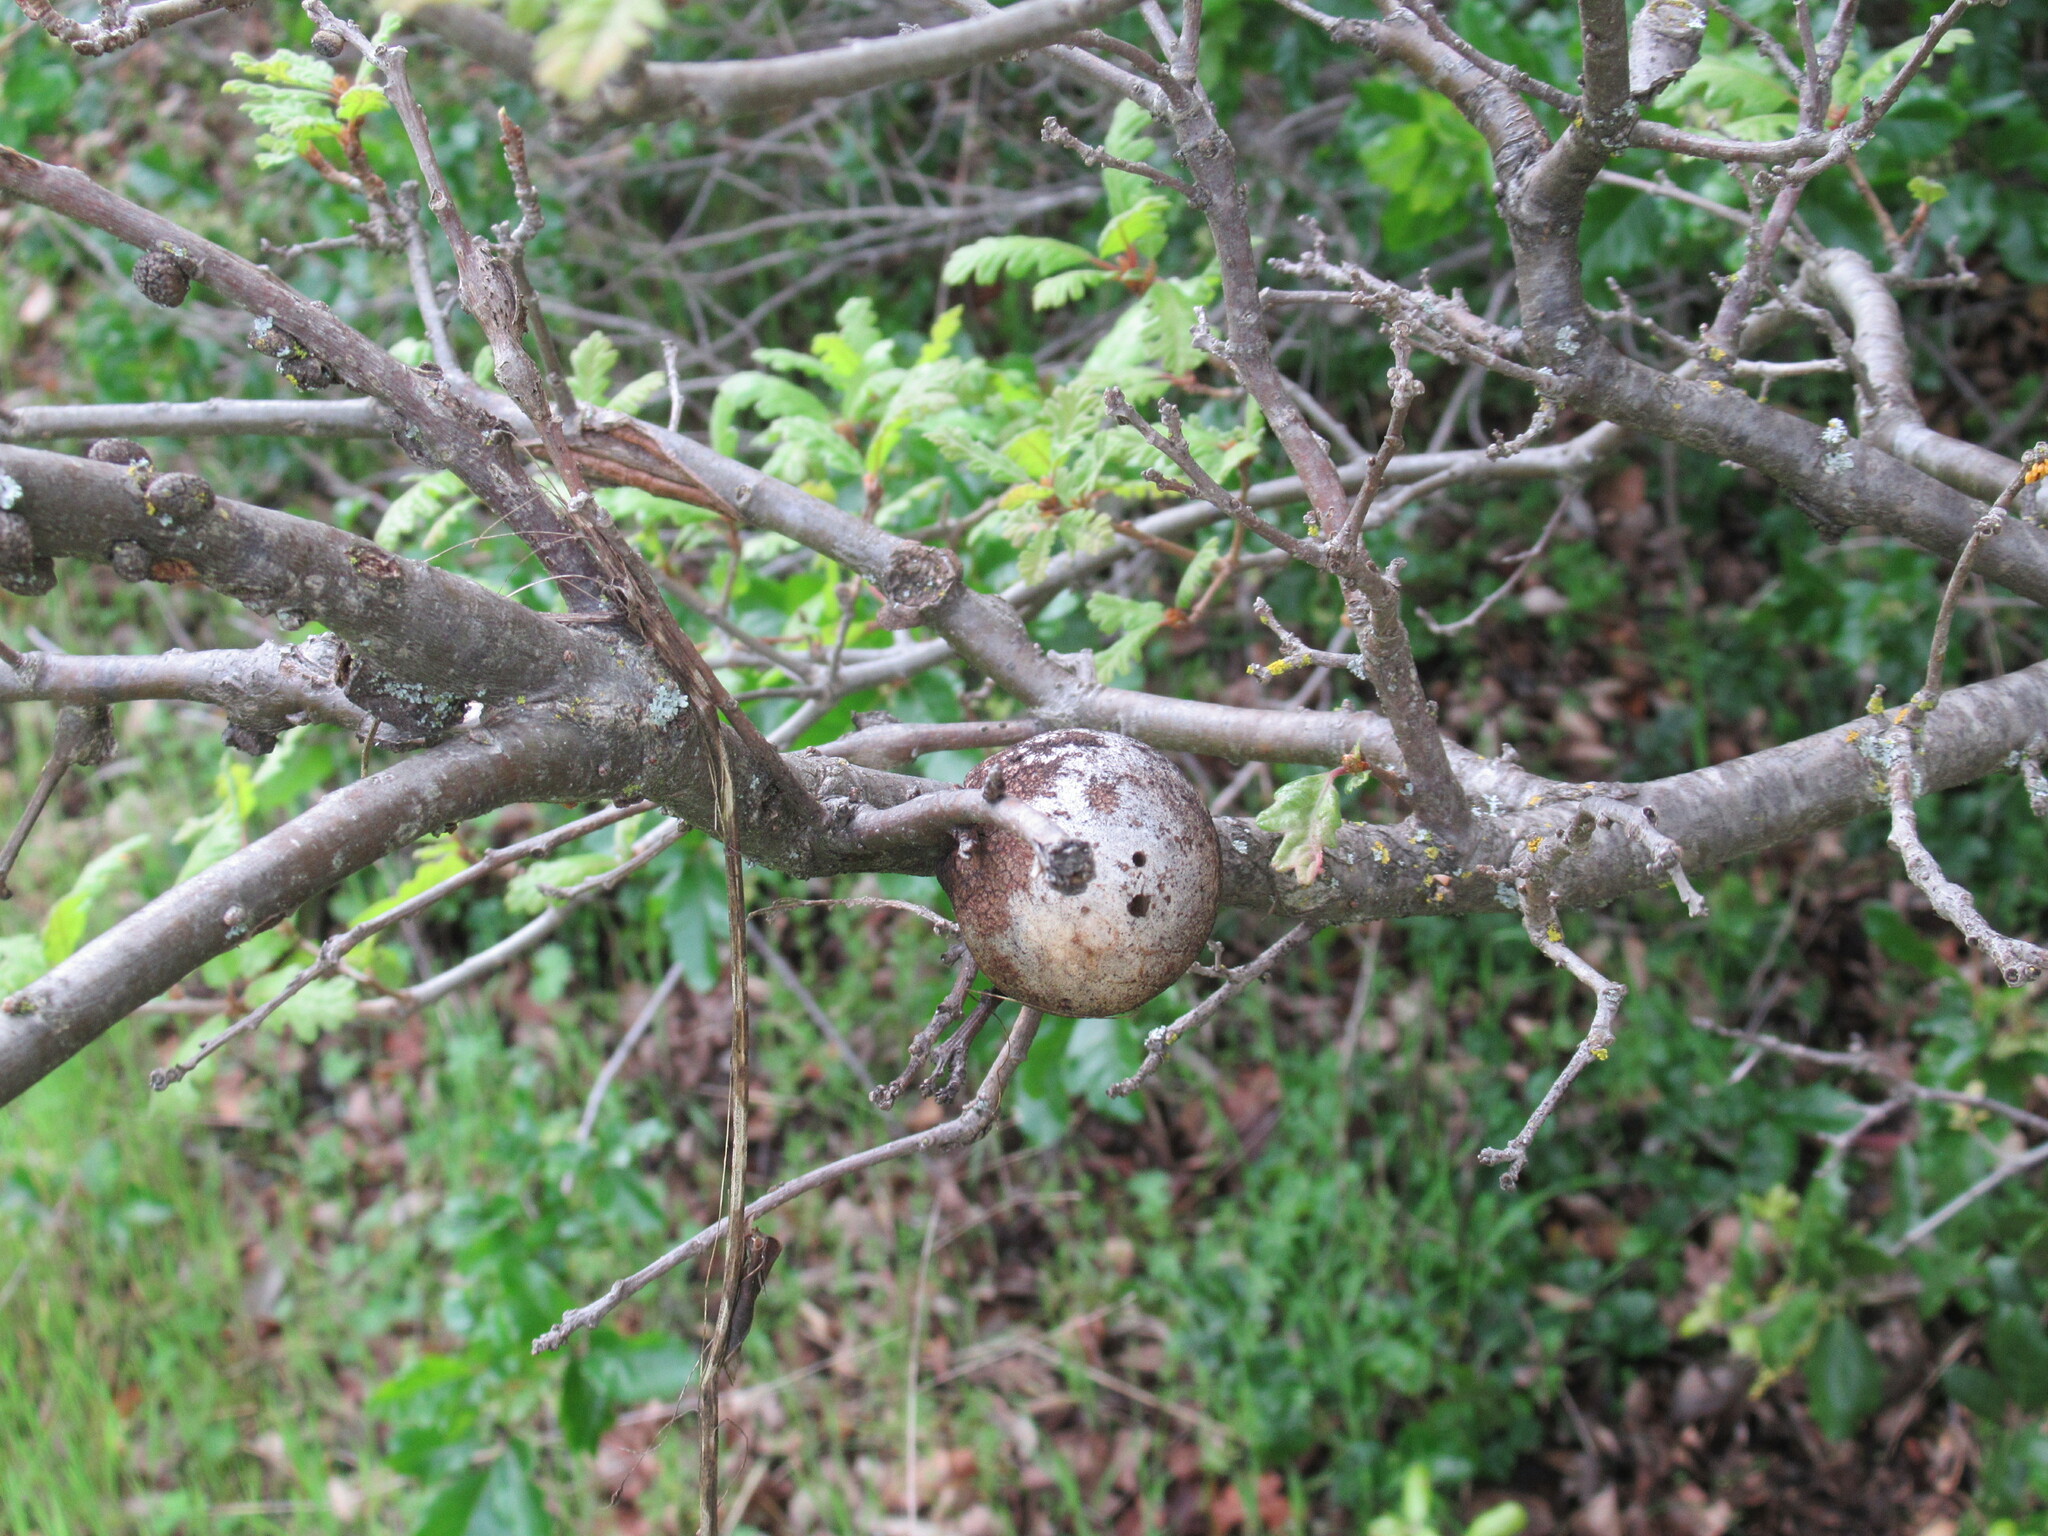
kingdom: Animalia
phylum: Arthropoda
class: Insecta
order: Hymenoptera
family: Cynipidae
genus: Andricus
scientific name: Andricus quercuscalifornicus
